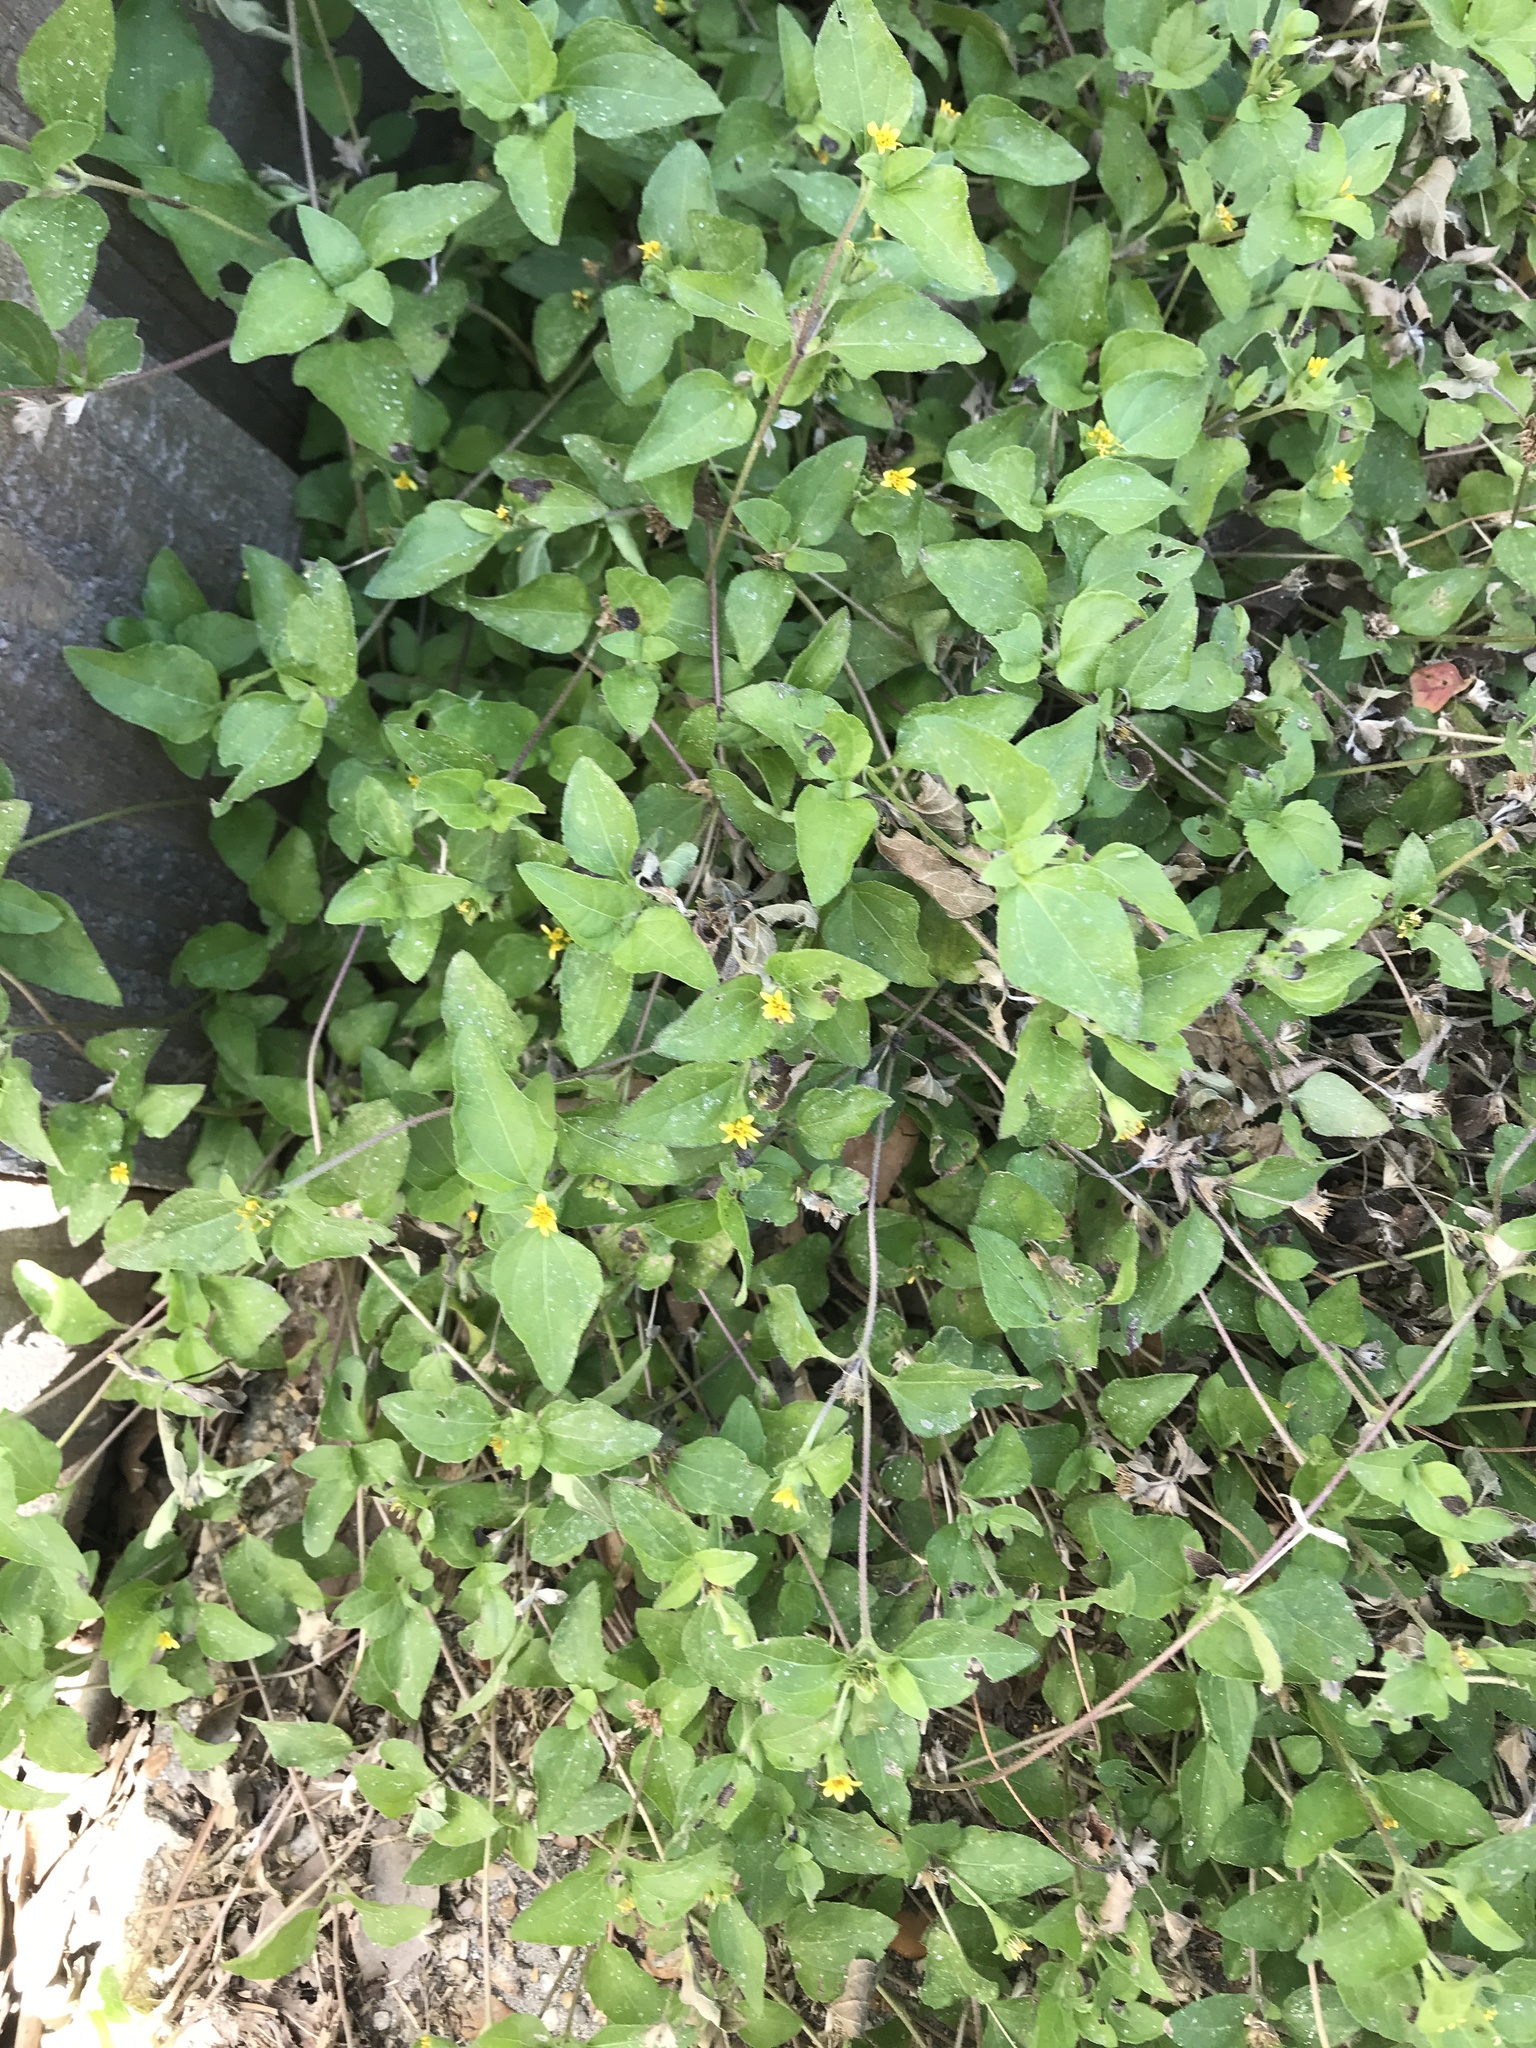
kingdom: Plantae
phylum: Tracheophyta
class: Magnoliopsida
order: Asterales
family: Asteraceae
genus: Calyptocarpus
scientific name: Calyptocarpus vialis
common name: Straggler daisy
